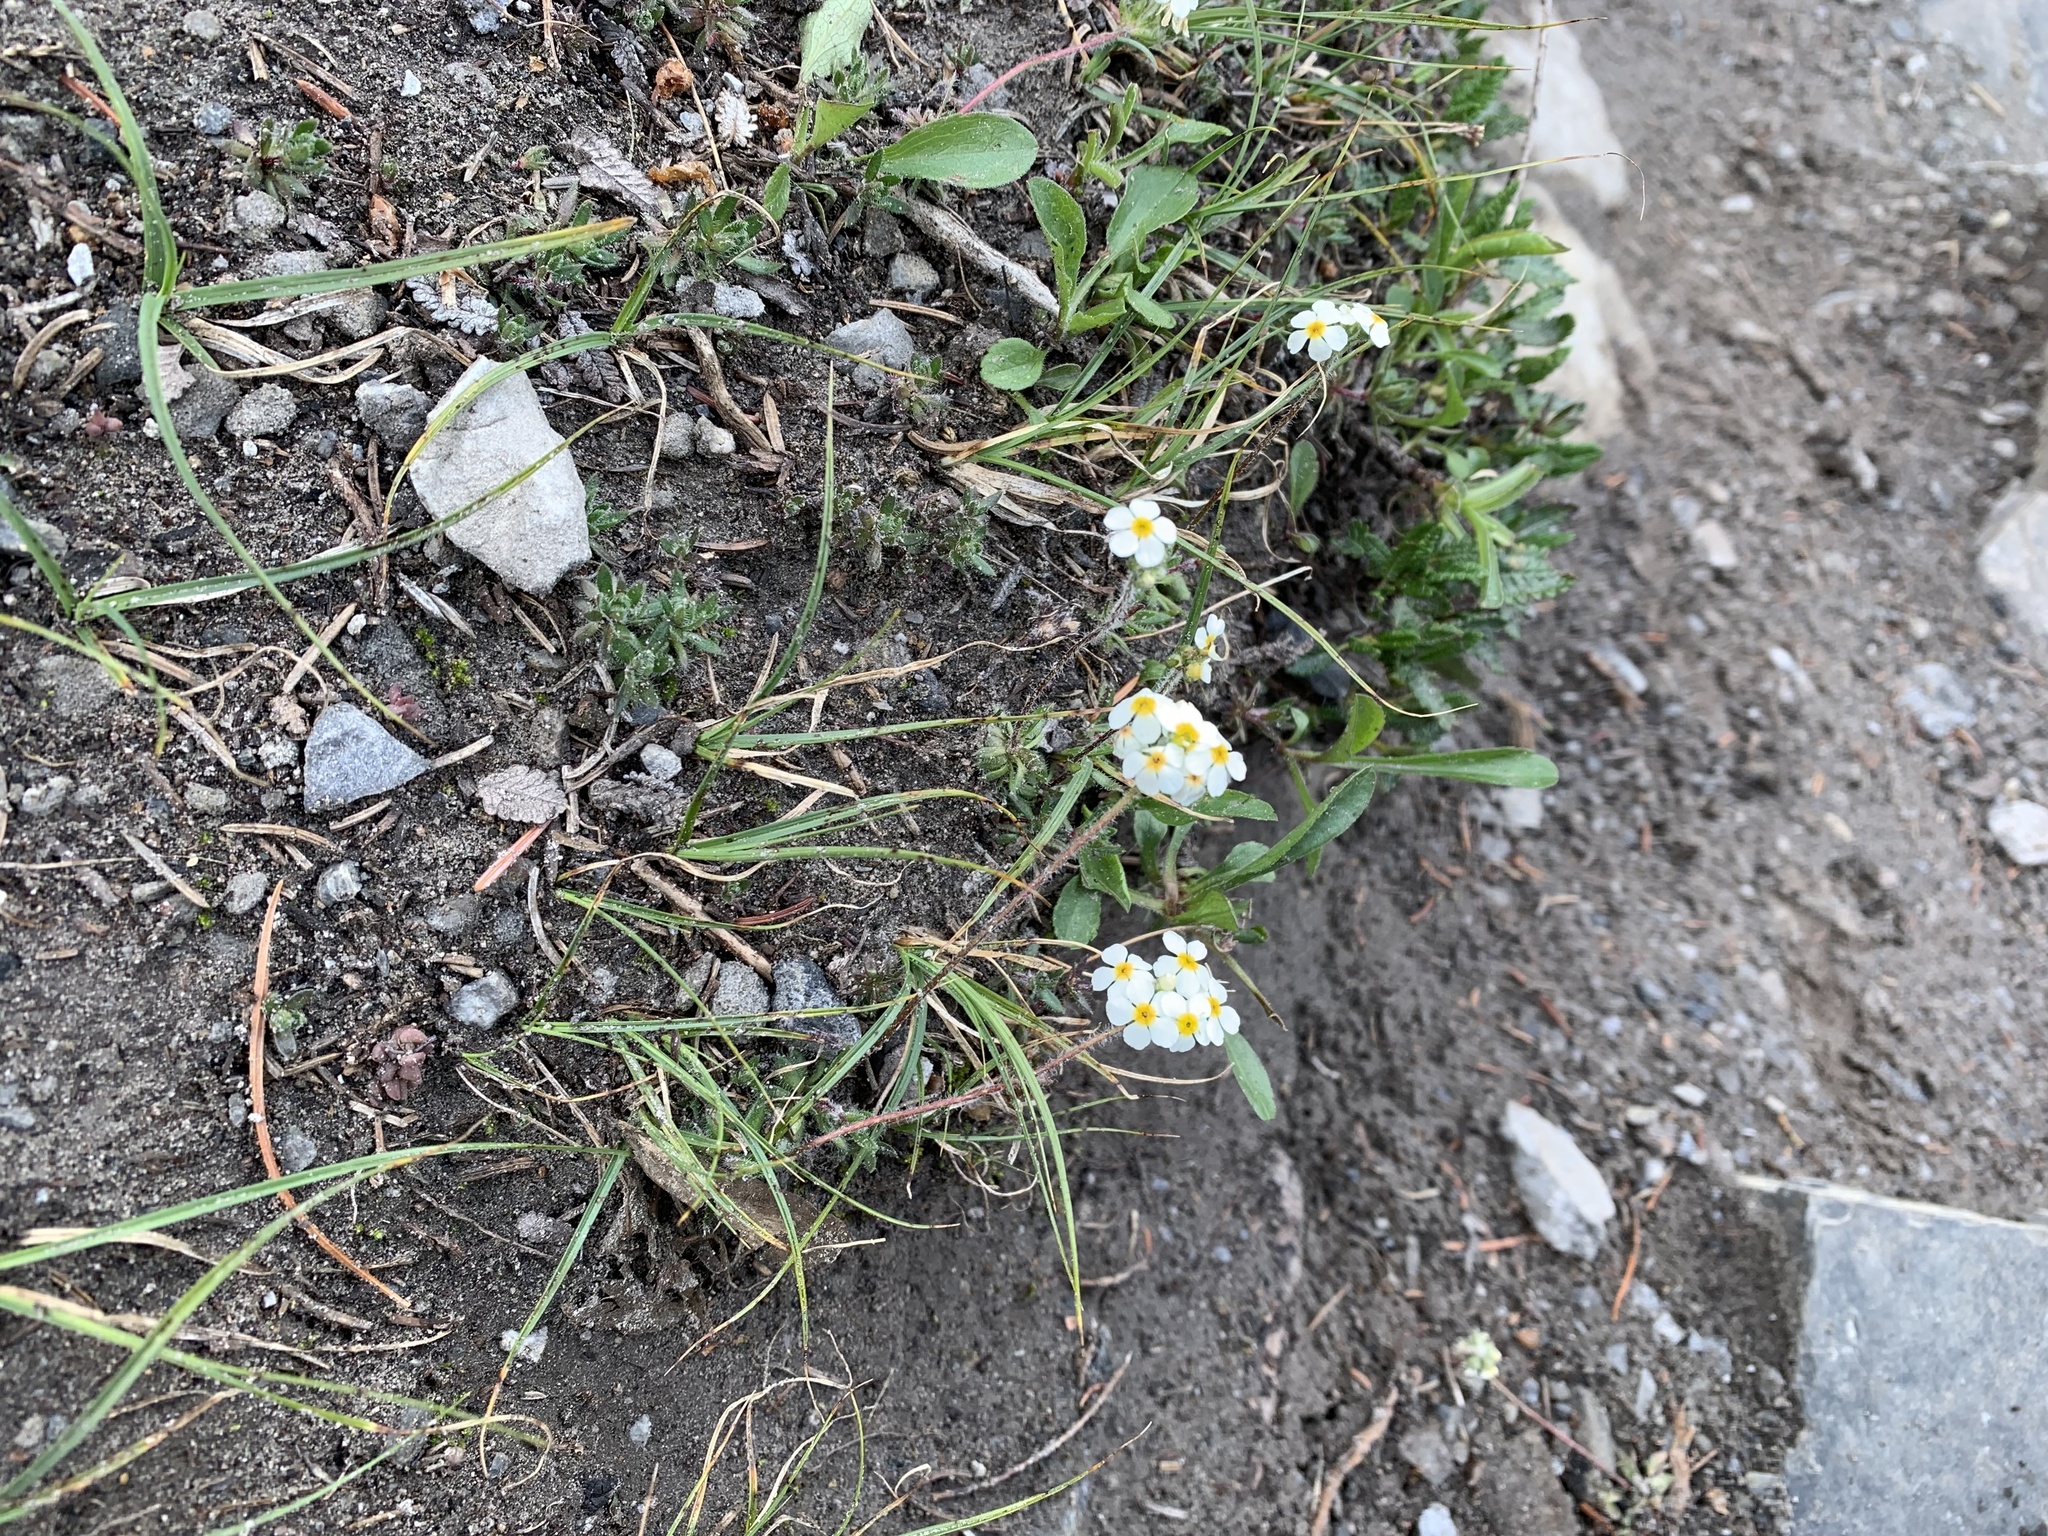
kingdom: Plantae
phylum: Tracheophyta
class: Magnoliopsida
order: Ericales
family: Primulaceae
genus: Androsace
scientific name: Androsace chamaejasme
